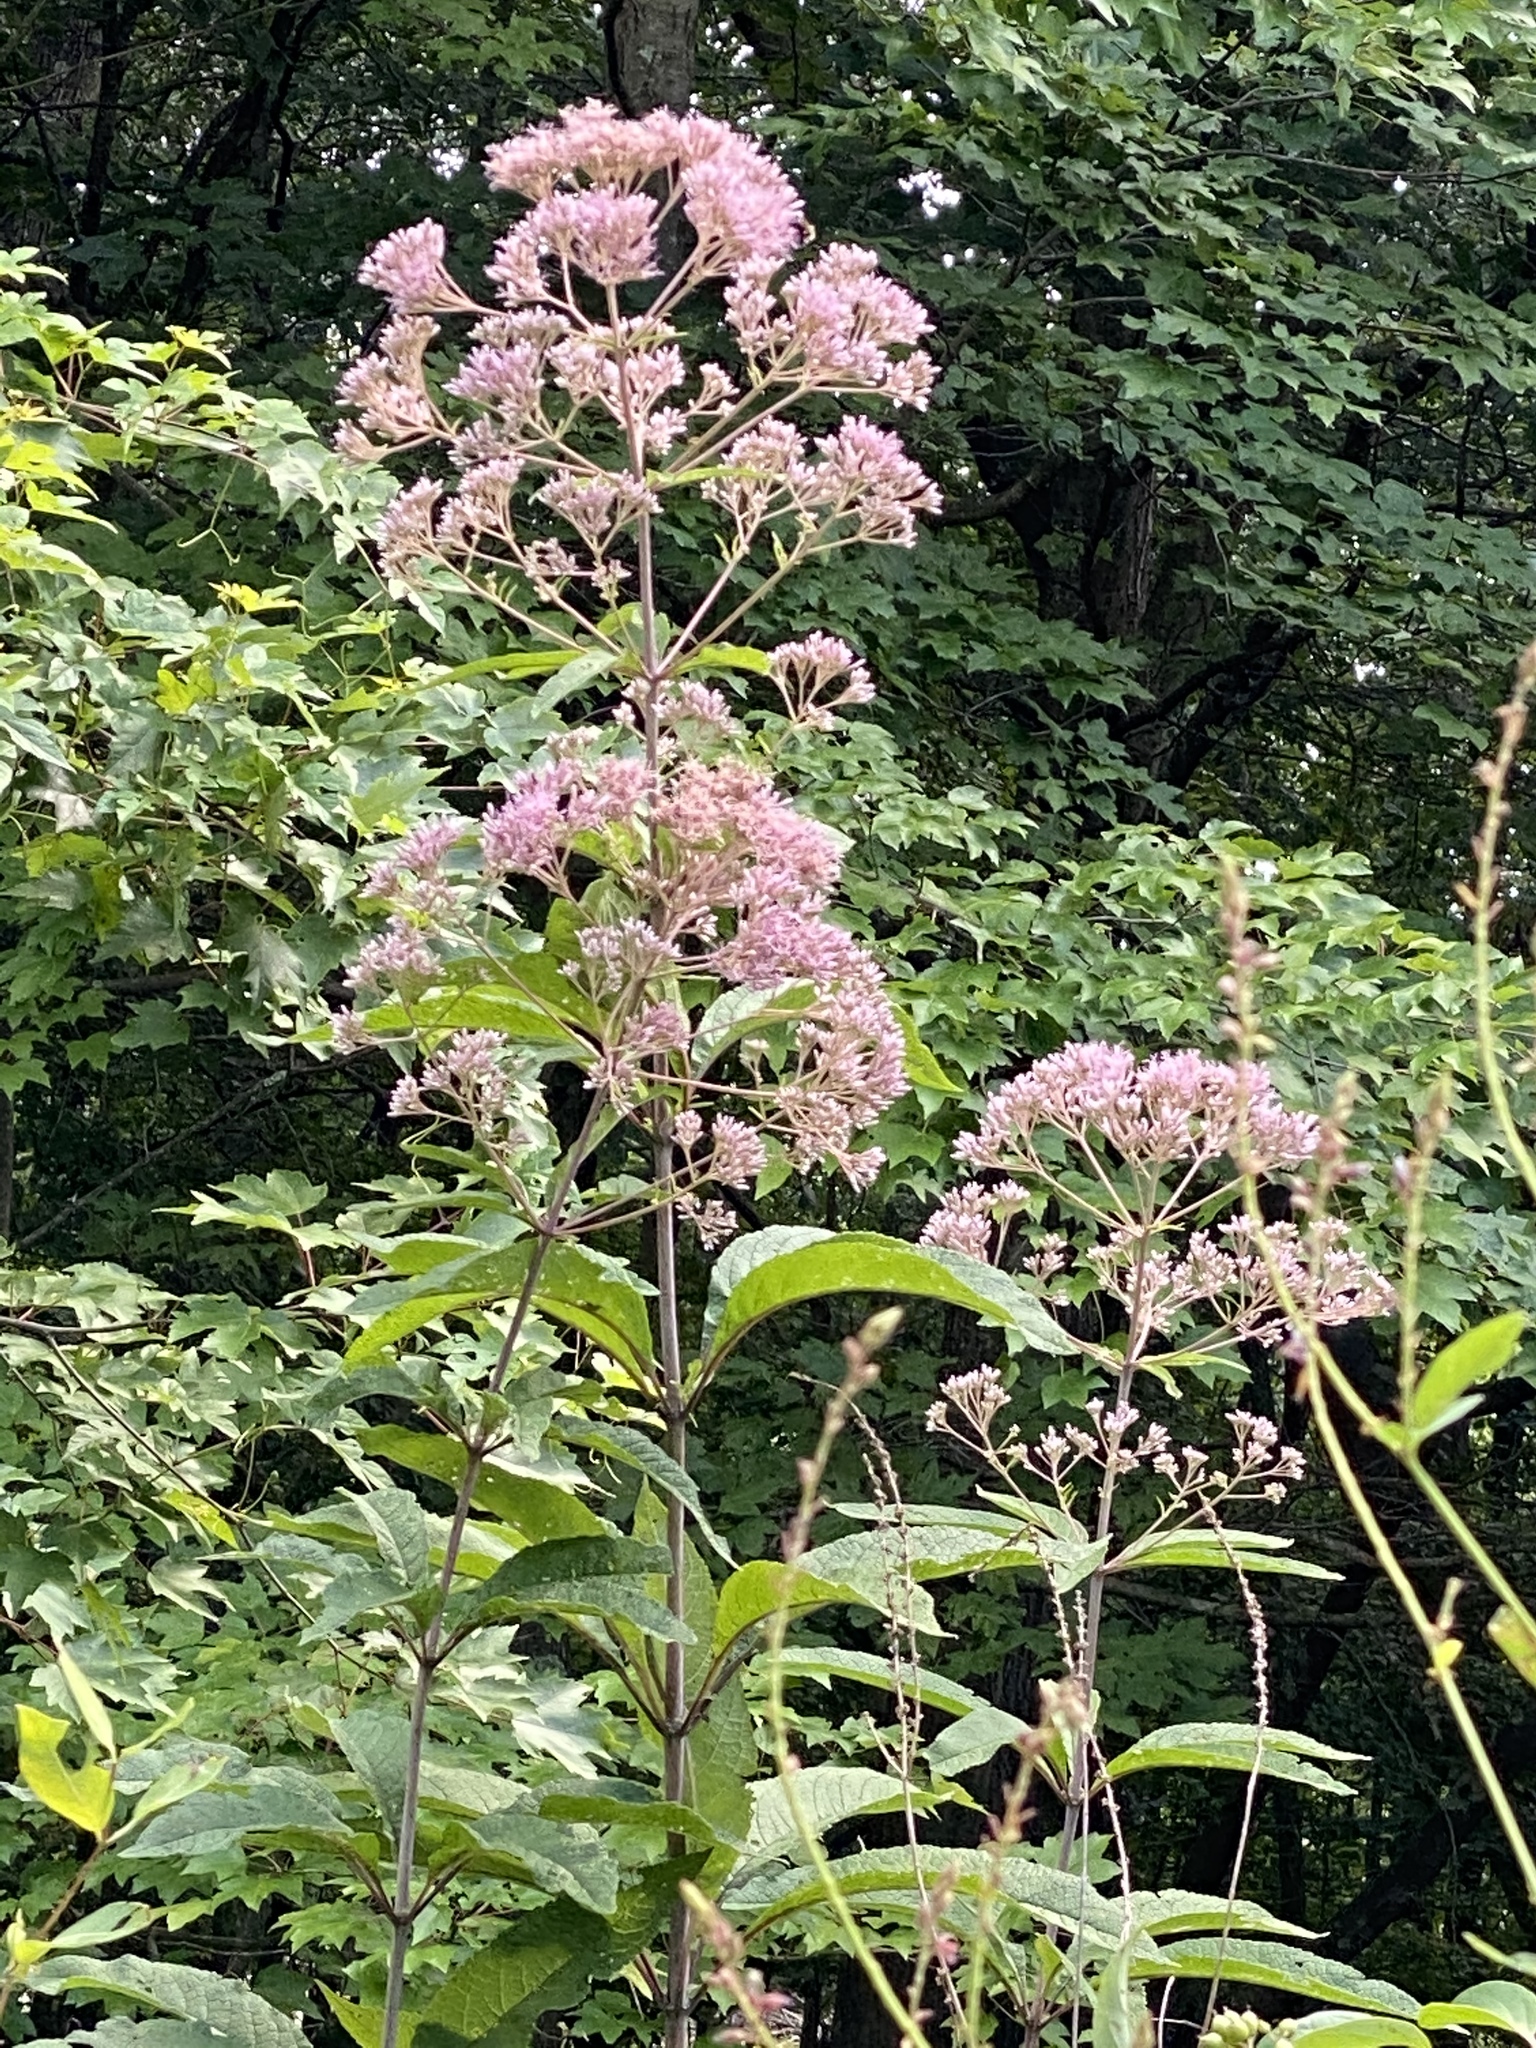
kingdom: Plantae
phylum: Tracheophyta
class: Magnoliopsida
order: Asterales
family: Asteraceae
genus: Eutrochium
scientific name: Eutrochium fistulosum
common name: Trumpetweed
